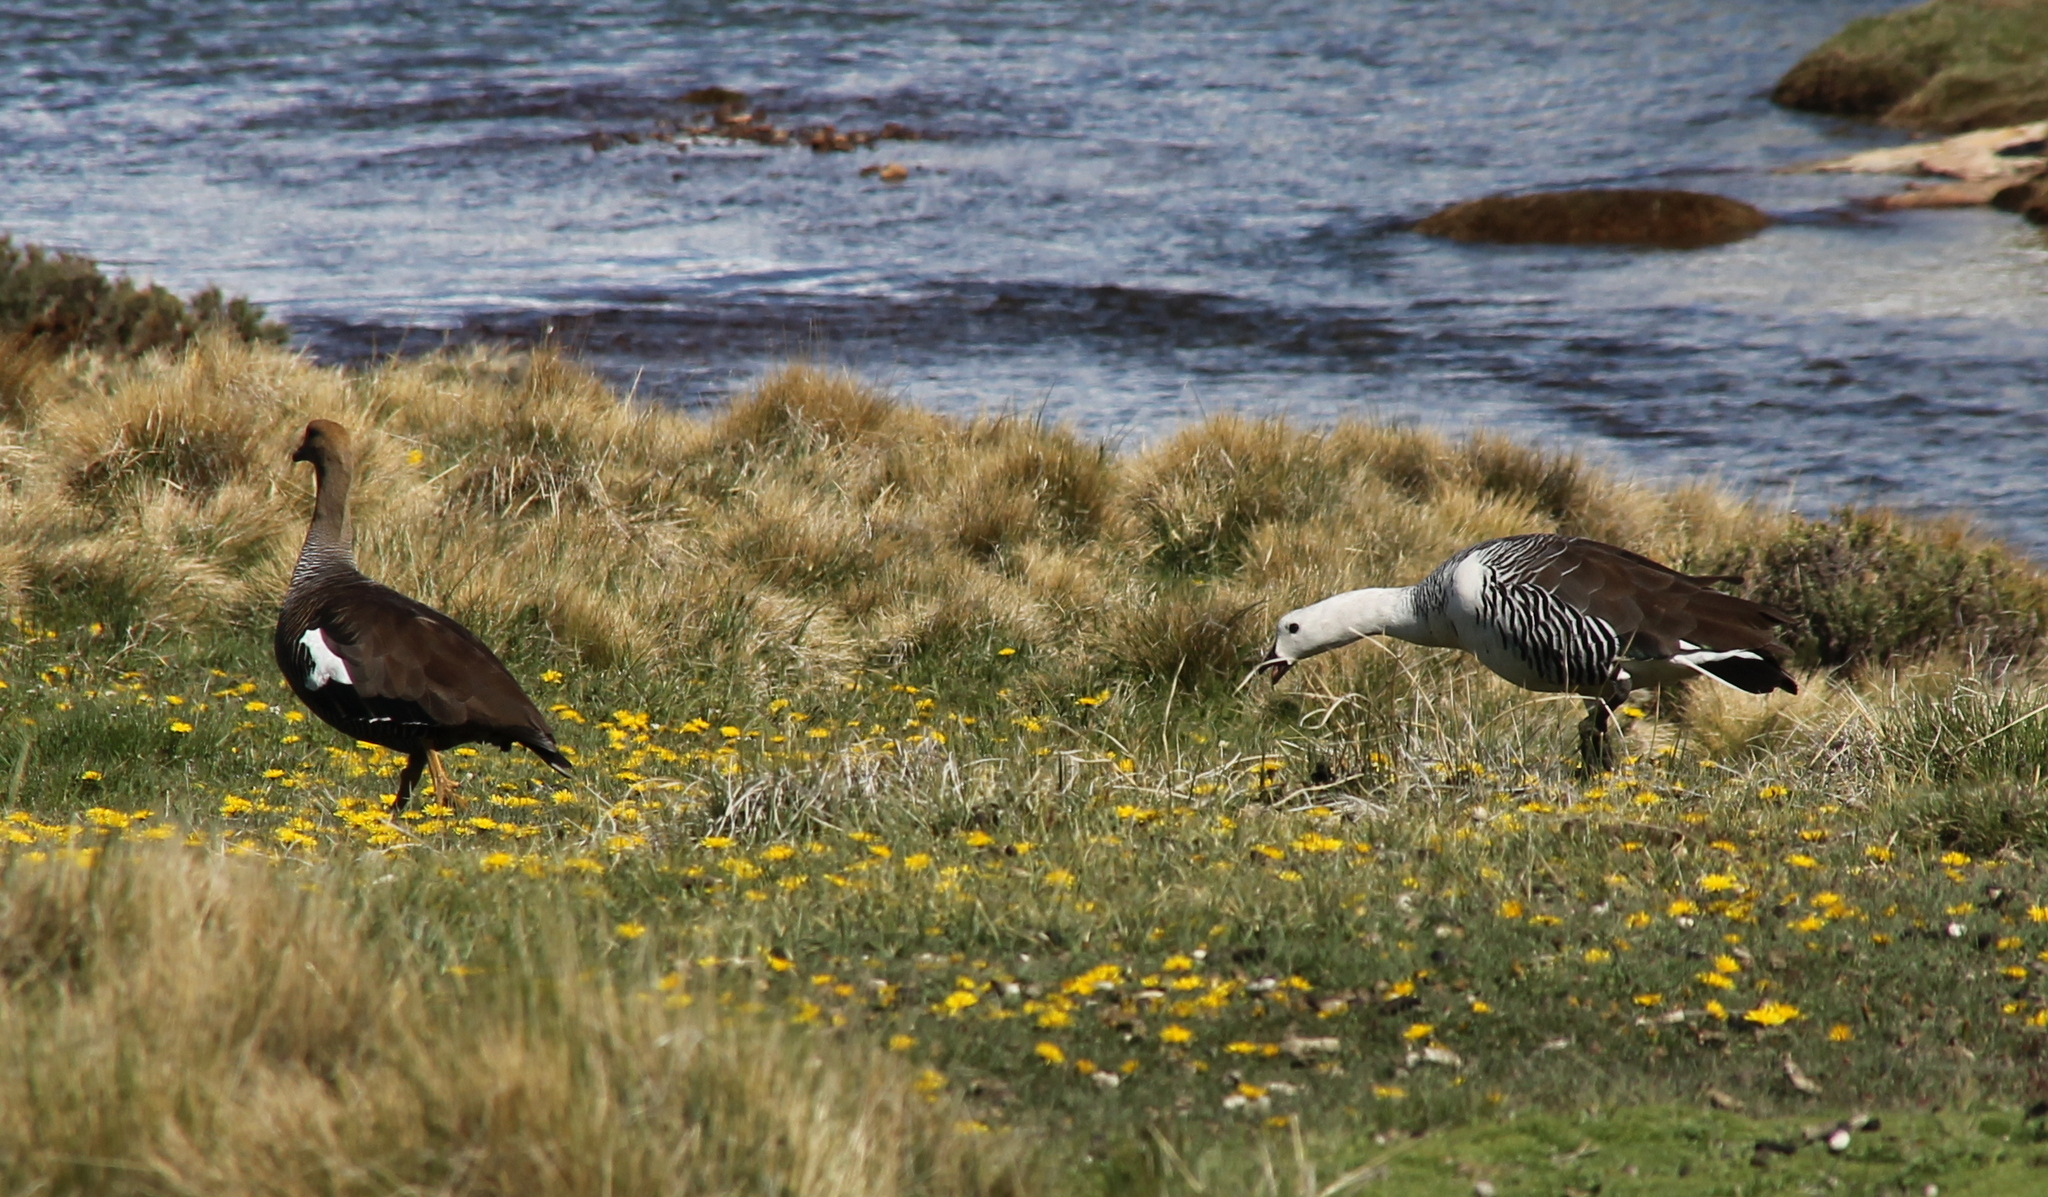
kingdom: Animalia
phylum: Chordata
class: Aves
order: Anseriformes
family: Anatidae
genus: Chloephaga
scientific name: Chloephaga picta
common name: Upland goose
